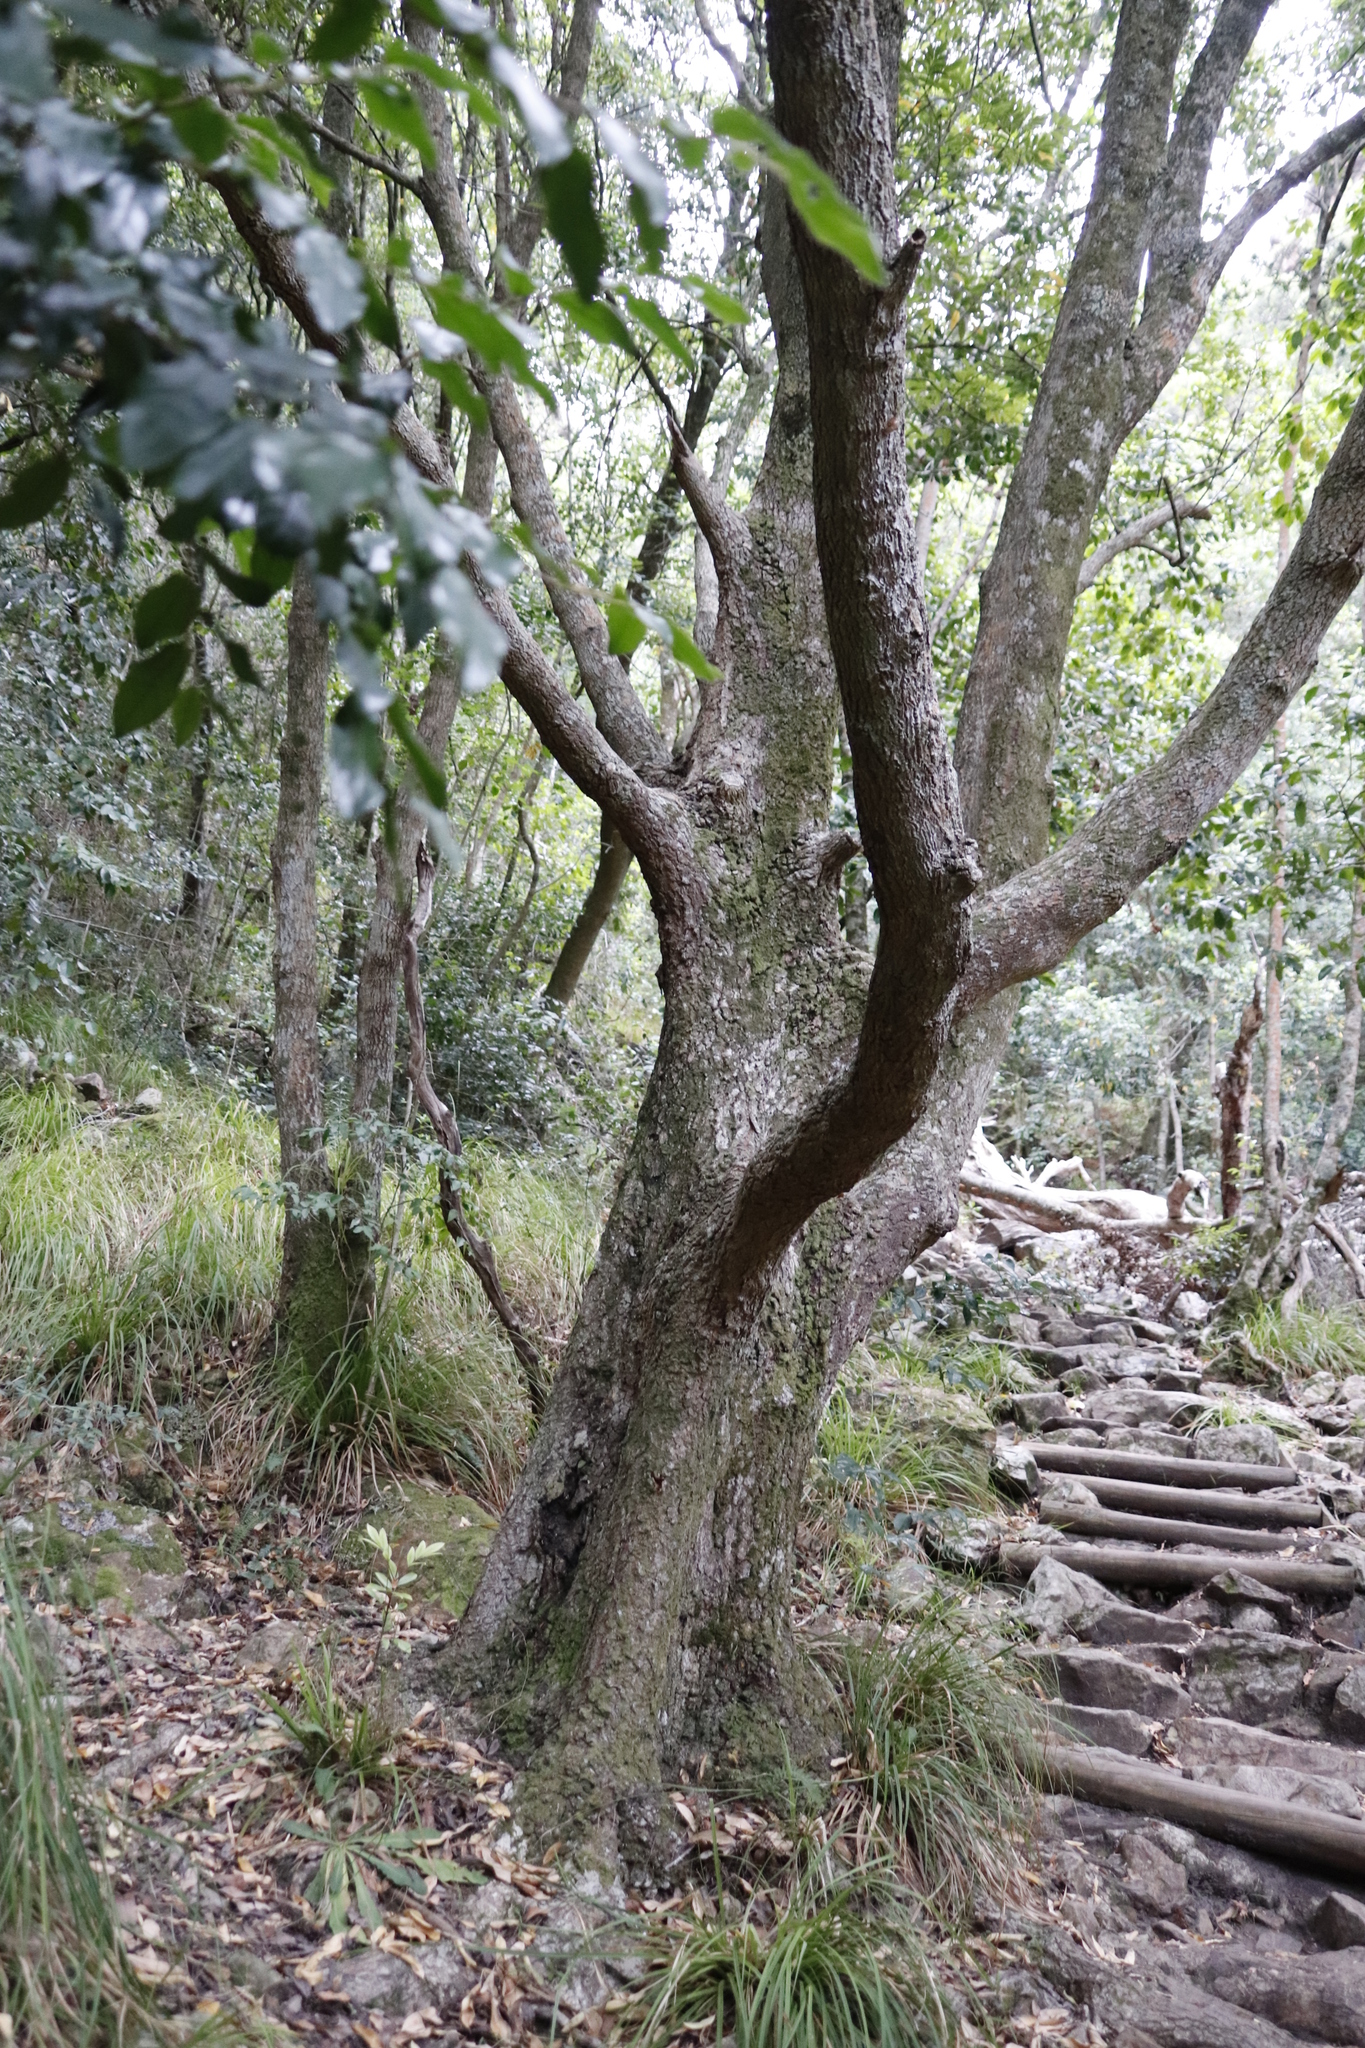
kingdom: Plantae
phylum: Tracheophyta
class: Magnoliopsida
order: Oxalidales
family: Cunoniaceae
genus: Cunonia
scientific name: Cunonia capensis
